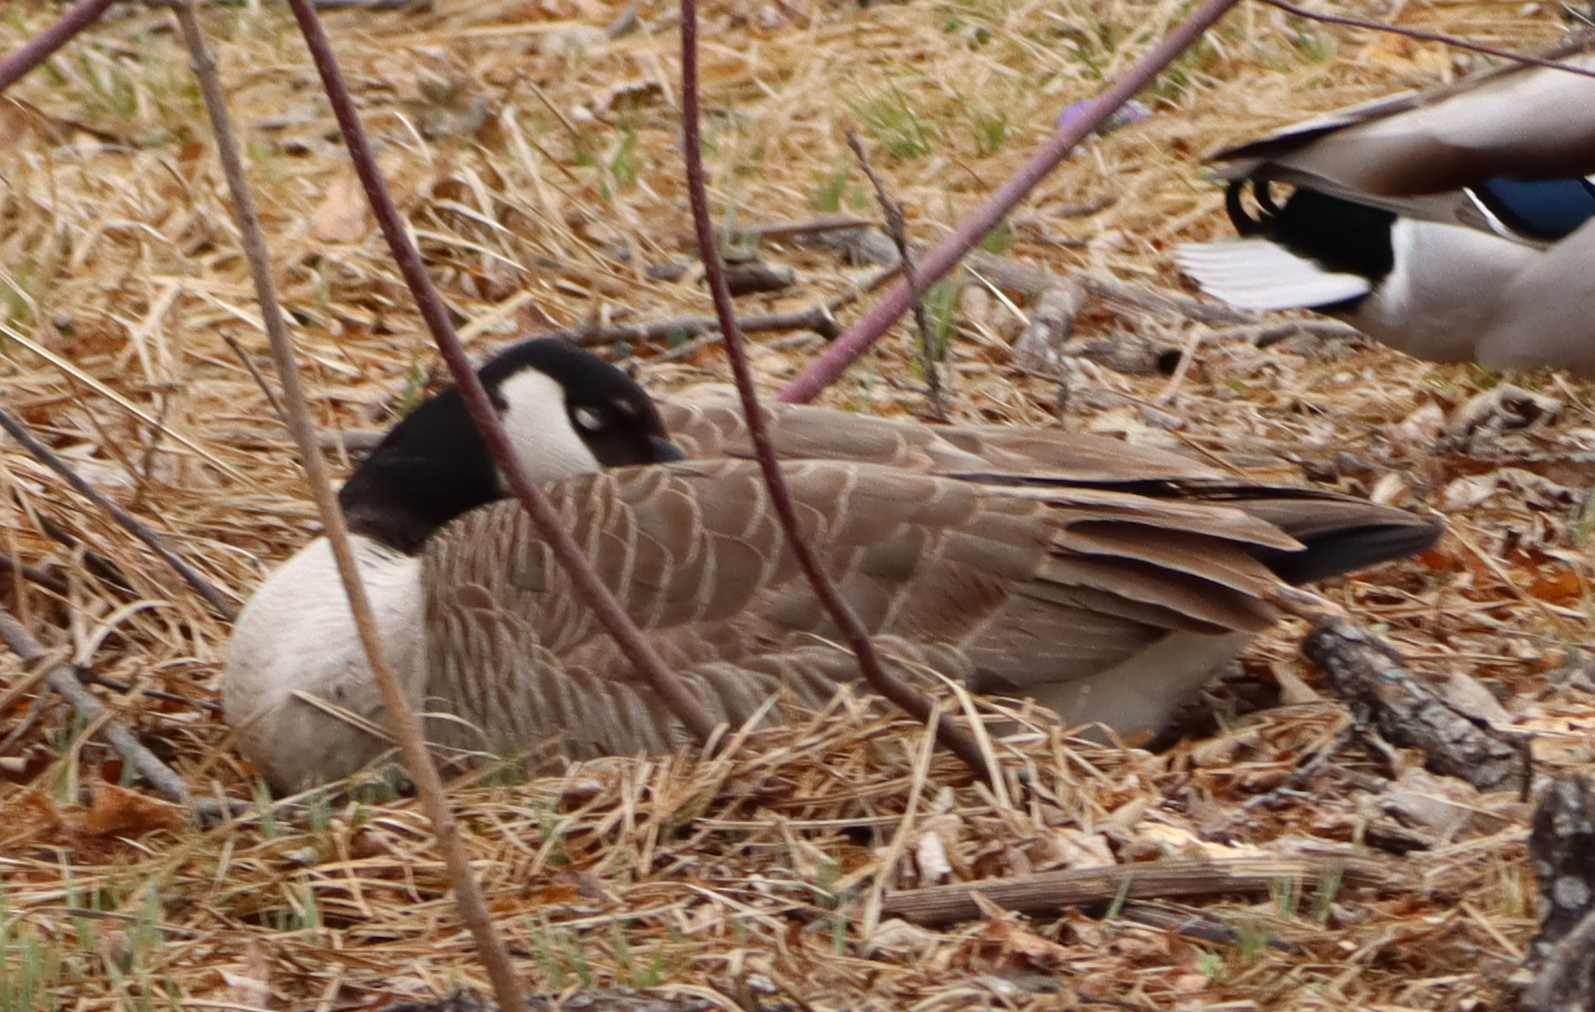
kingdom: Animalia
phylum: Chordata
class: Aves
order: Anseriformes
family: Anatidae
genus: Branta
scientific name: Branta canadensis
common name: Canada goose
